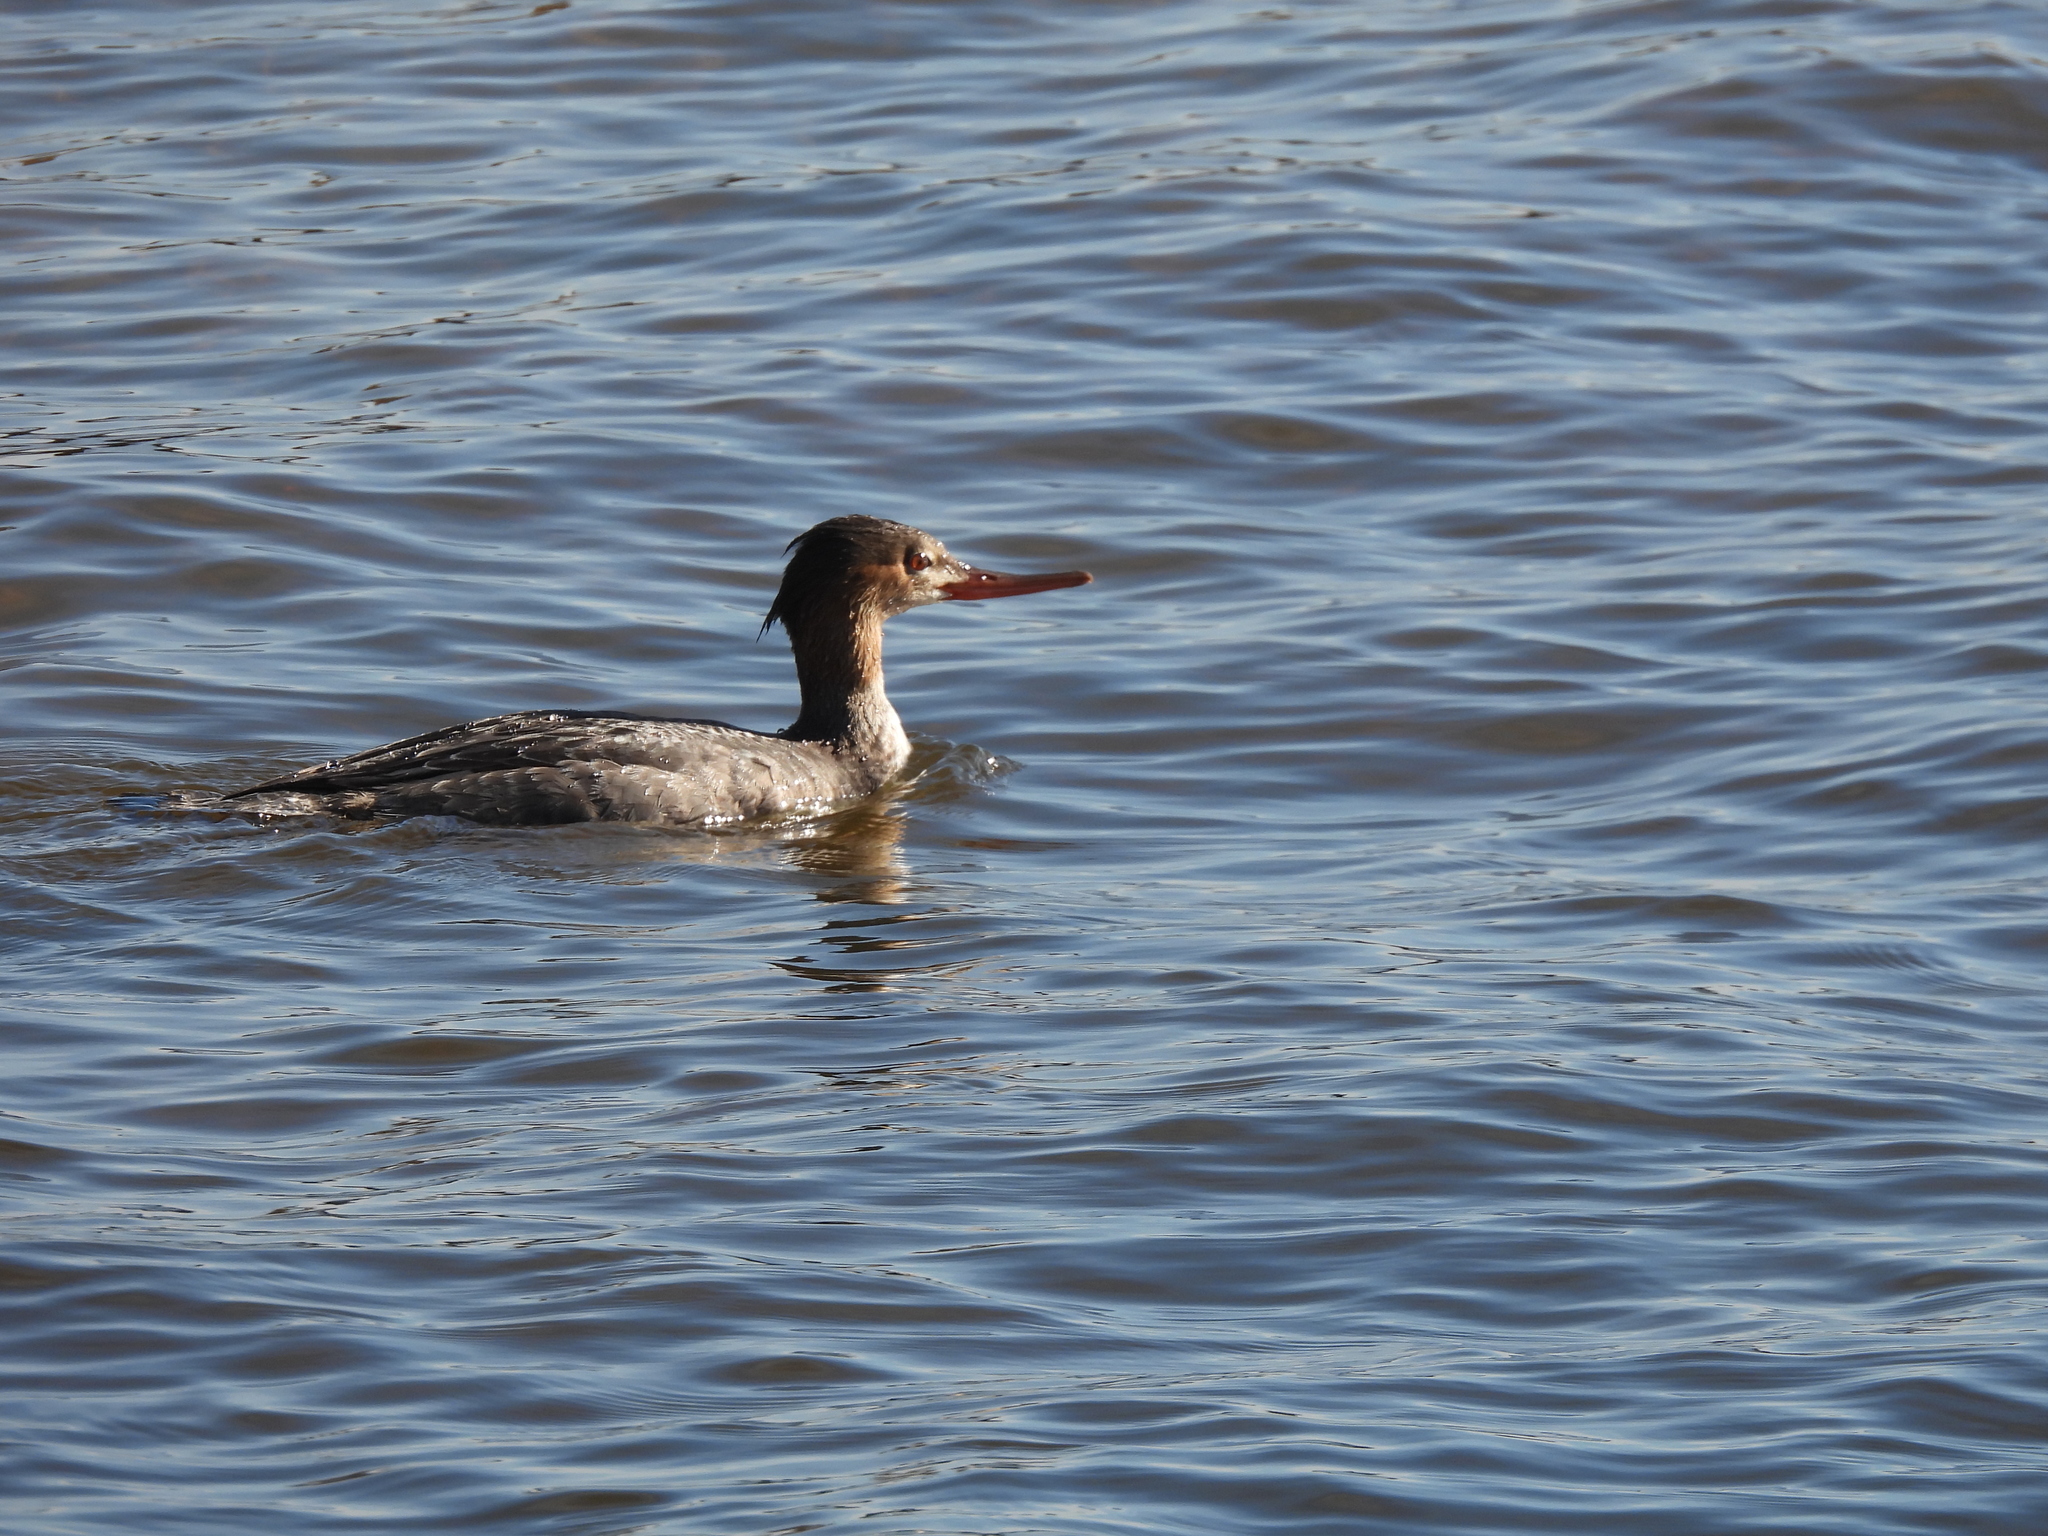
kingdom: Animalia
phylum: Chordata
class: Aves
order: Anseriformes
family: Anatidae
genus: Mergus
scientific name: Mergus serrator
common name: Red-breasted merganser
